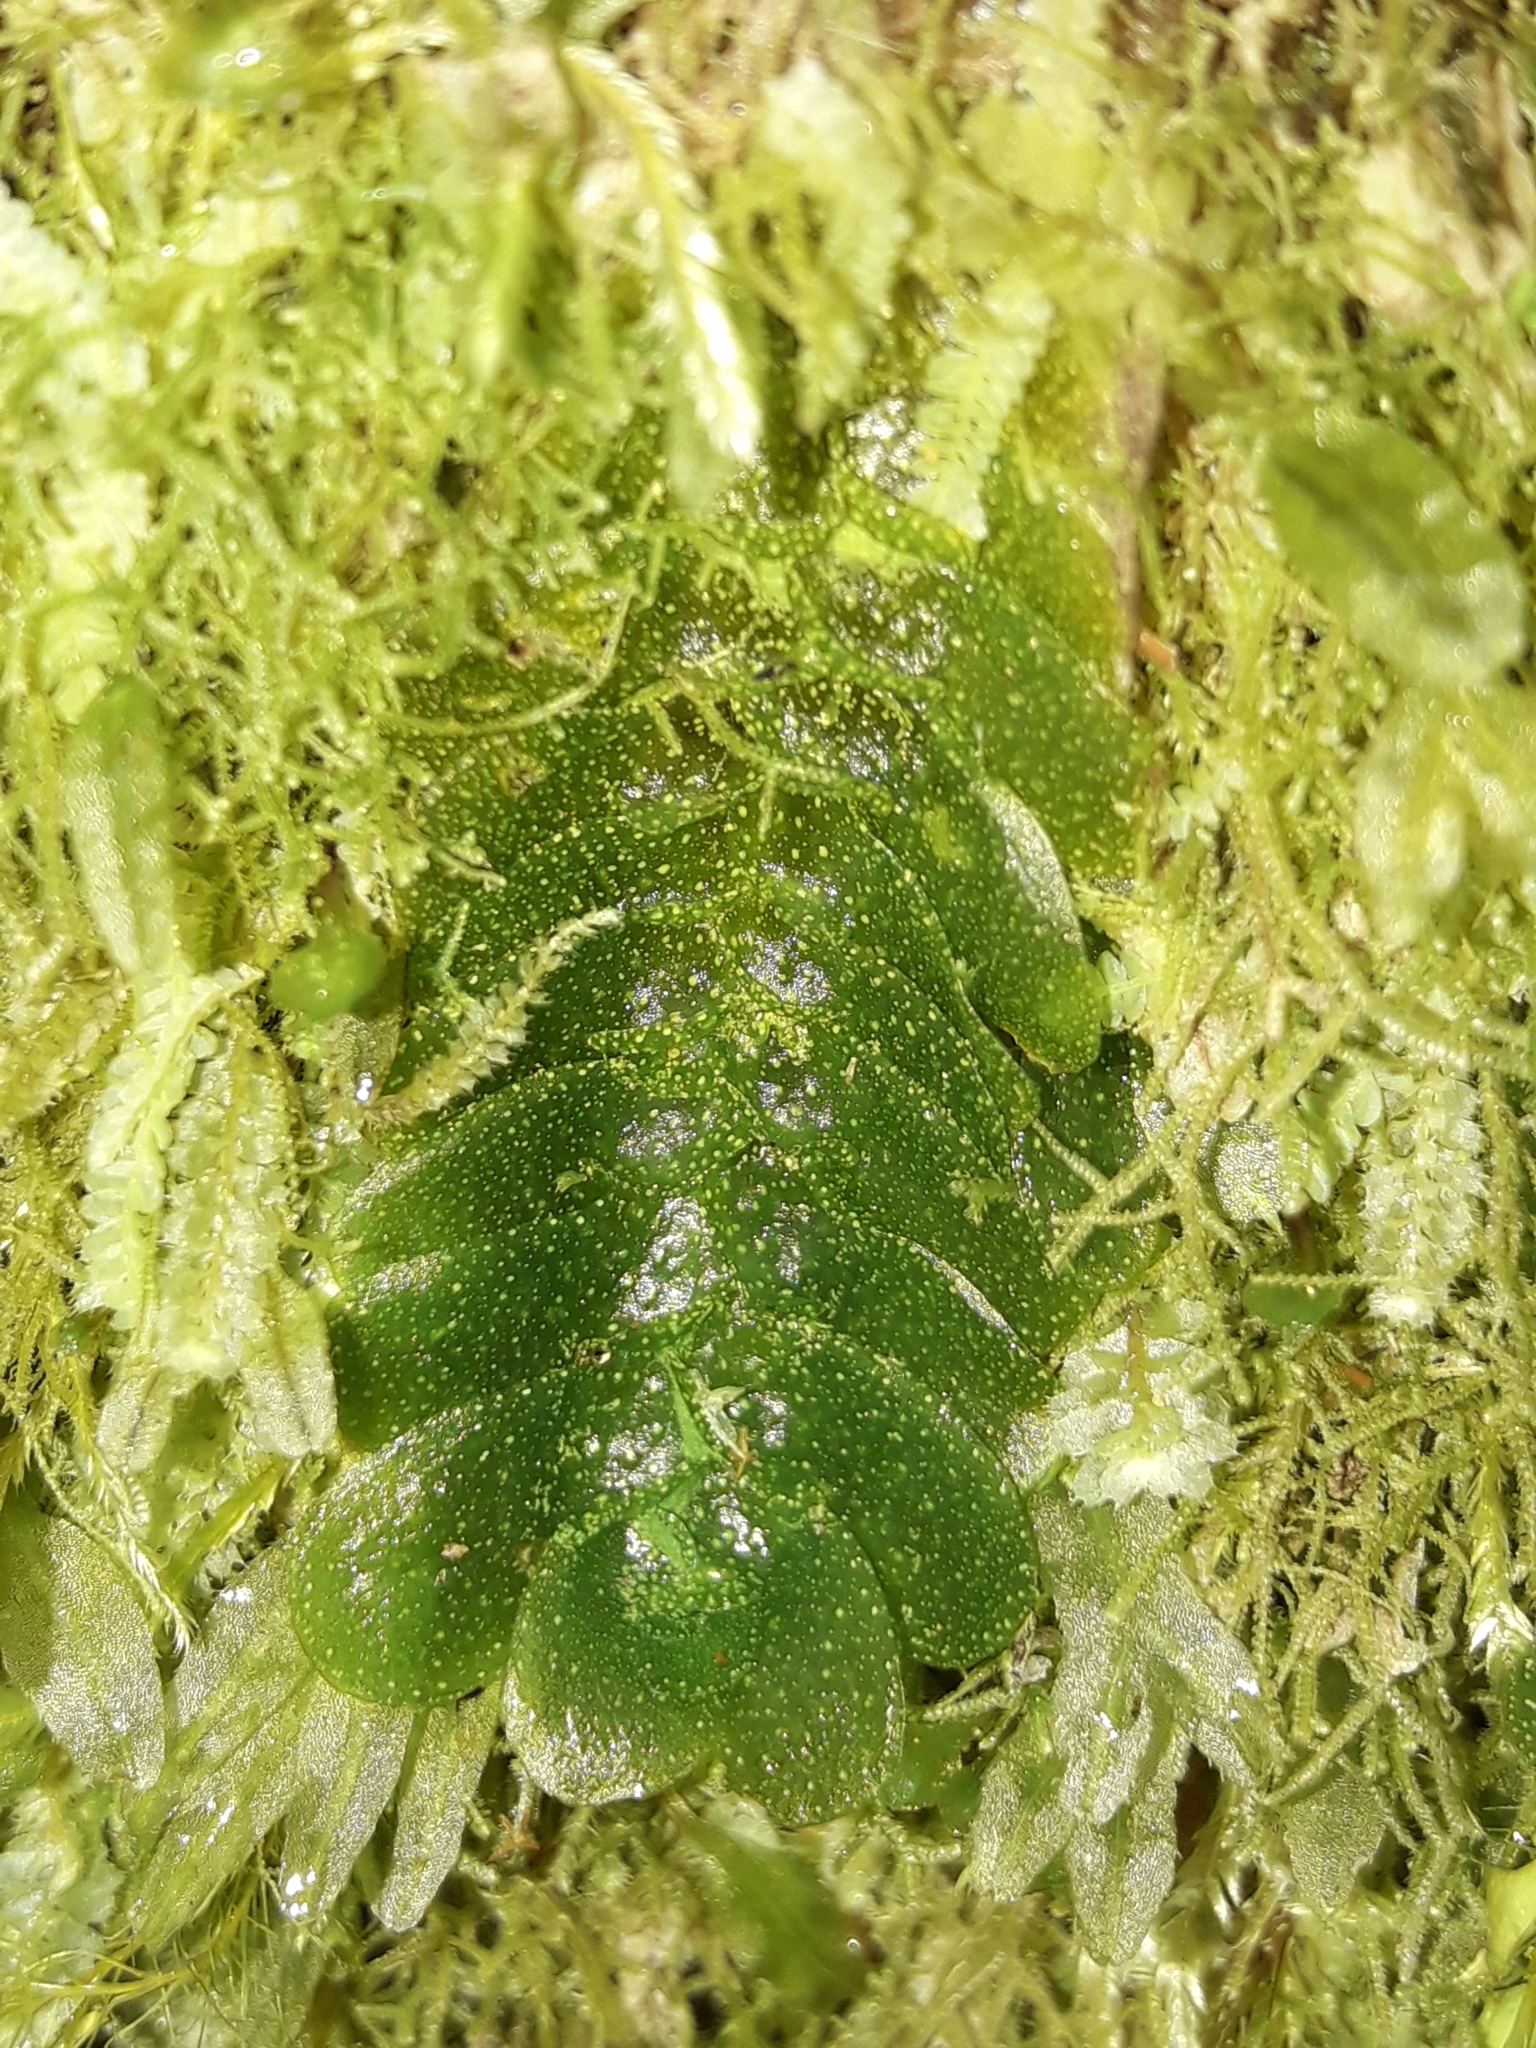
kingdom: Plantae
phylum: Marchantiophyta
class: Haplomitriopsida
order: Treubiales
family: Treubiaceae
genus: Treubia
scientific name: Treubia lacunosa
